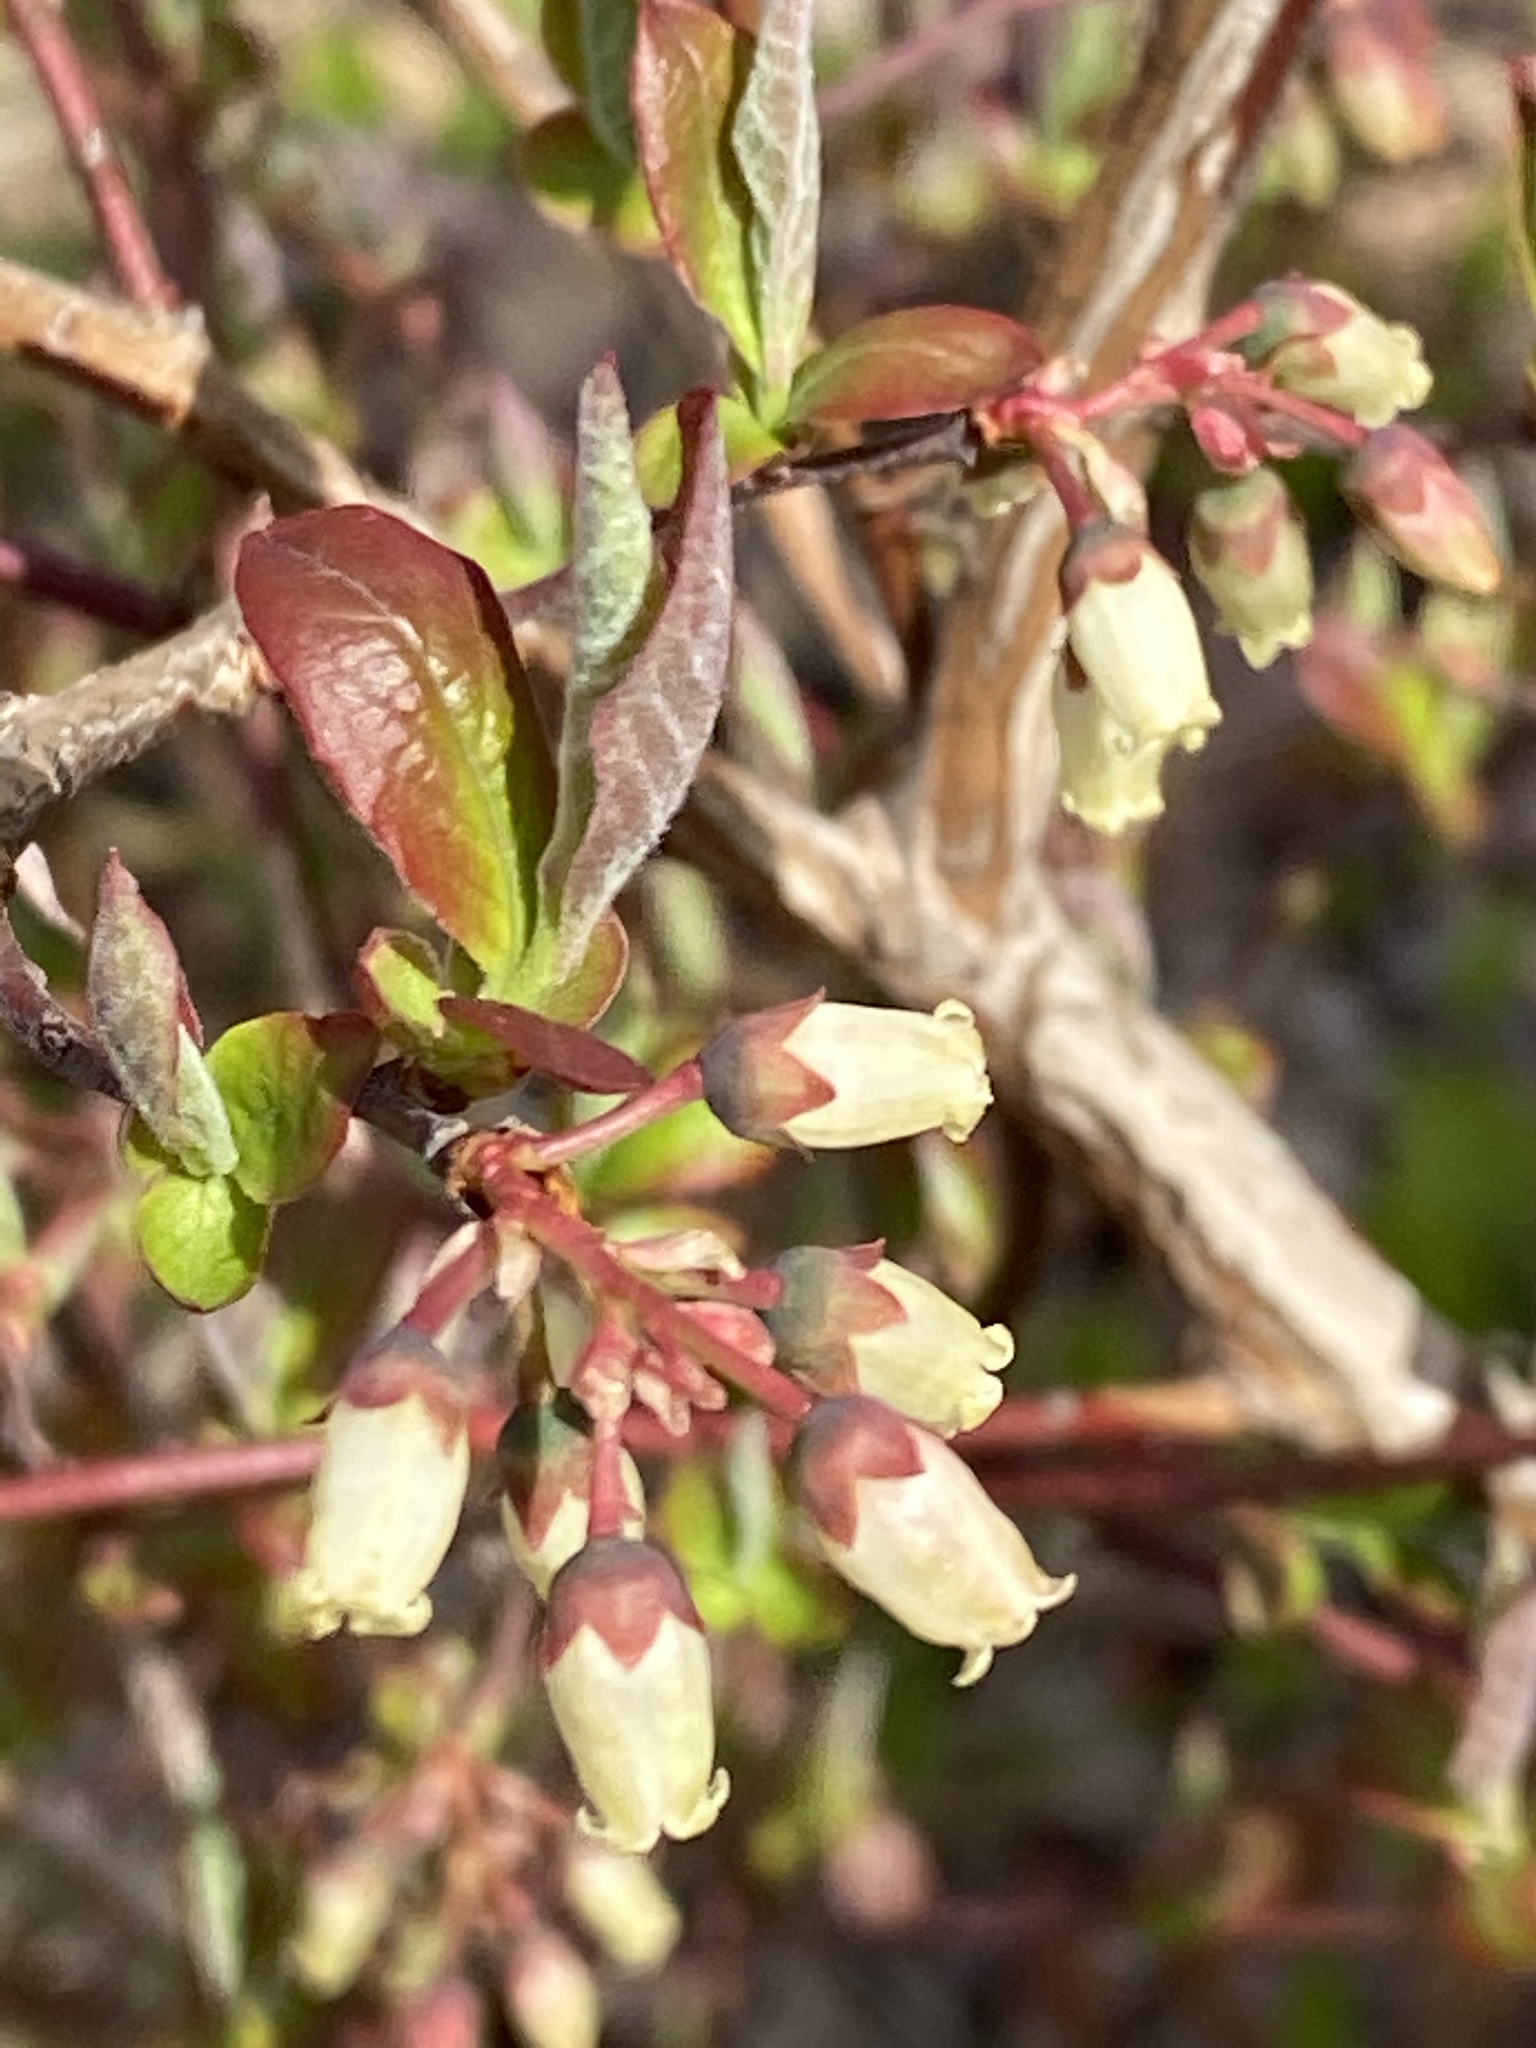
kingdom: Plantae
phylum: Tracheophyta
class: Magnoliopsida
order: Ericales
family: Ericaceae
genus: Vaccinium
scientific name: Vaccinium corymbosum
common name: Blueberry
